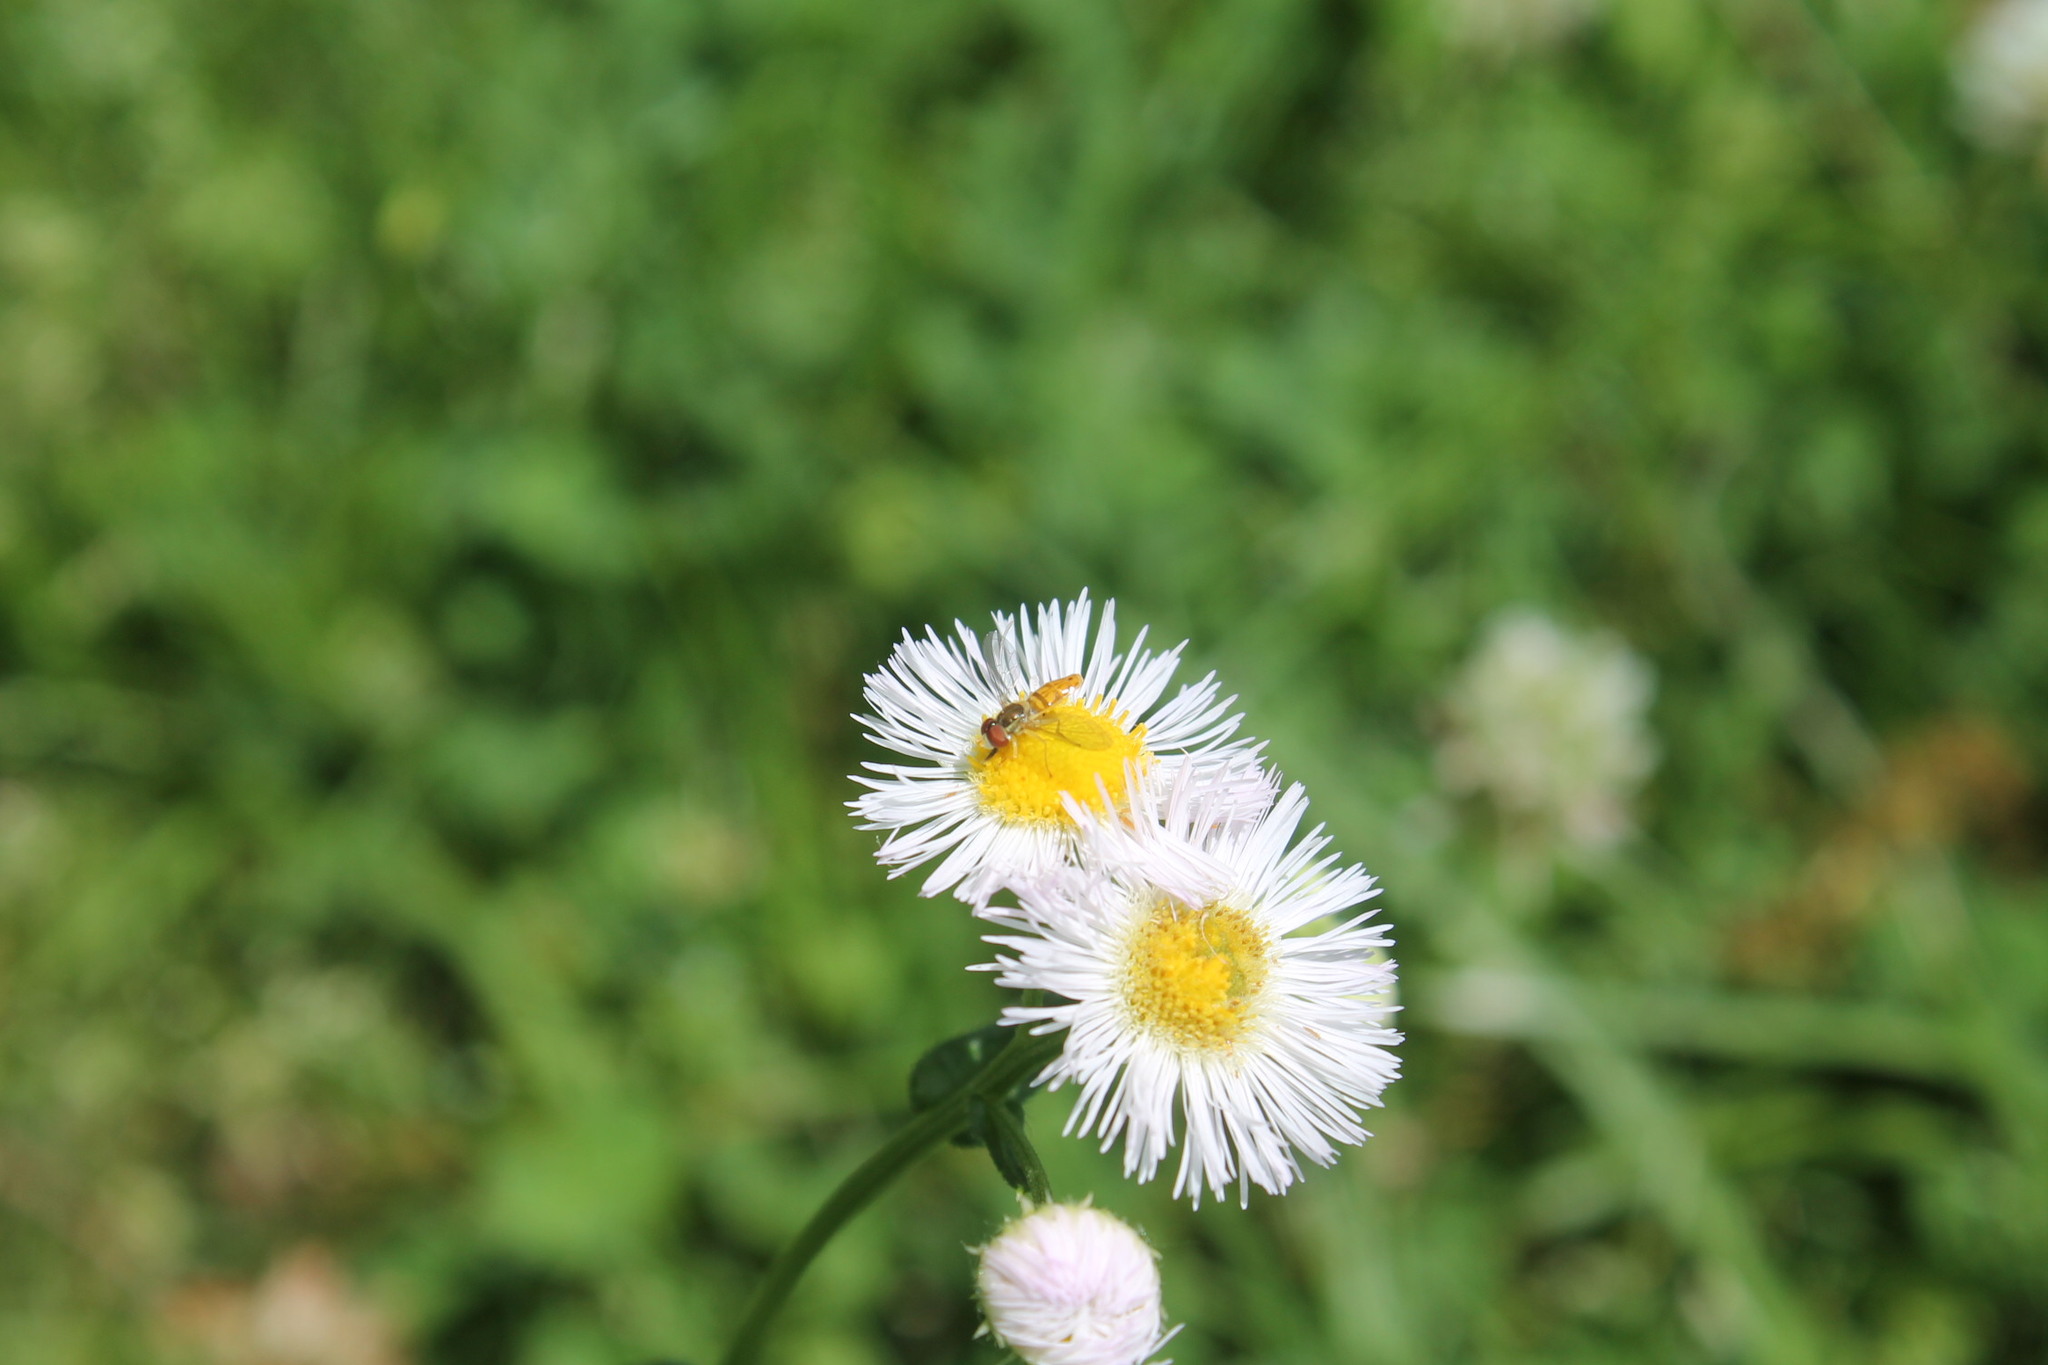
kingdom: Plantae
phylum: Tracheophyta
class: Magnoliopsida
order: Asterales
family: Asteraceae
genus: Erigeron
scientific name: Erigeron philadelphicus
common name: Robin's-plantain
